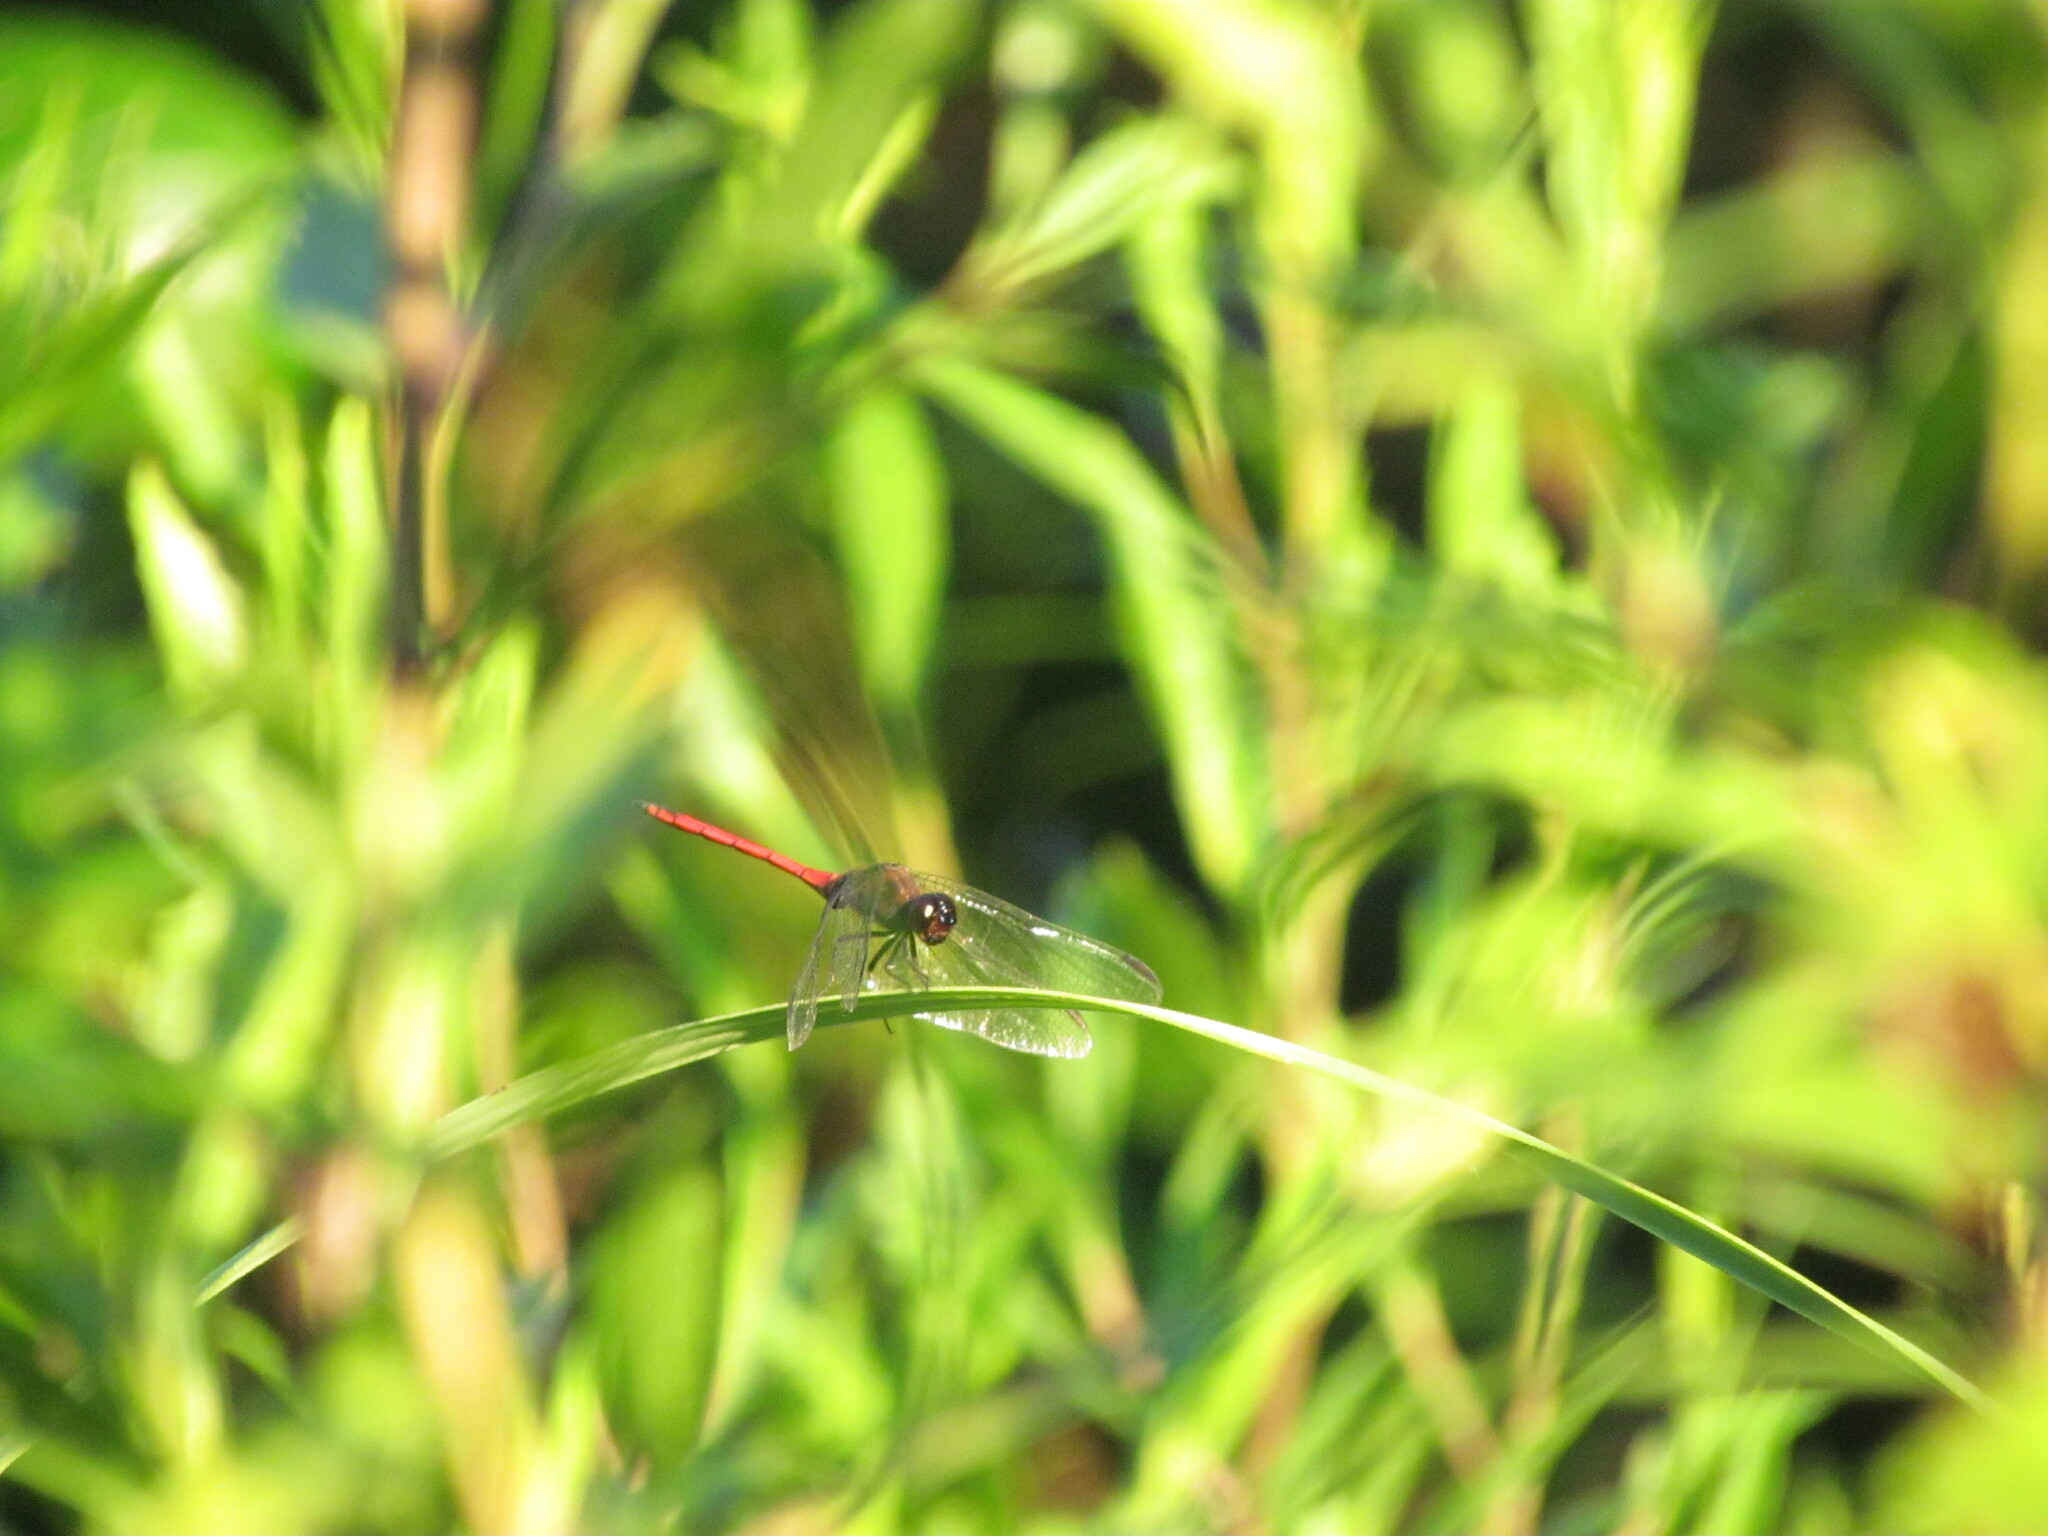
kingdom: Animalia
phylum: Arthropoda
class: Insecta
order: Odonata
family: Libellulidae
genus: Orthemis
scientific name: Orthemis ambinigra
